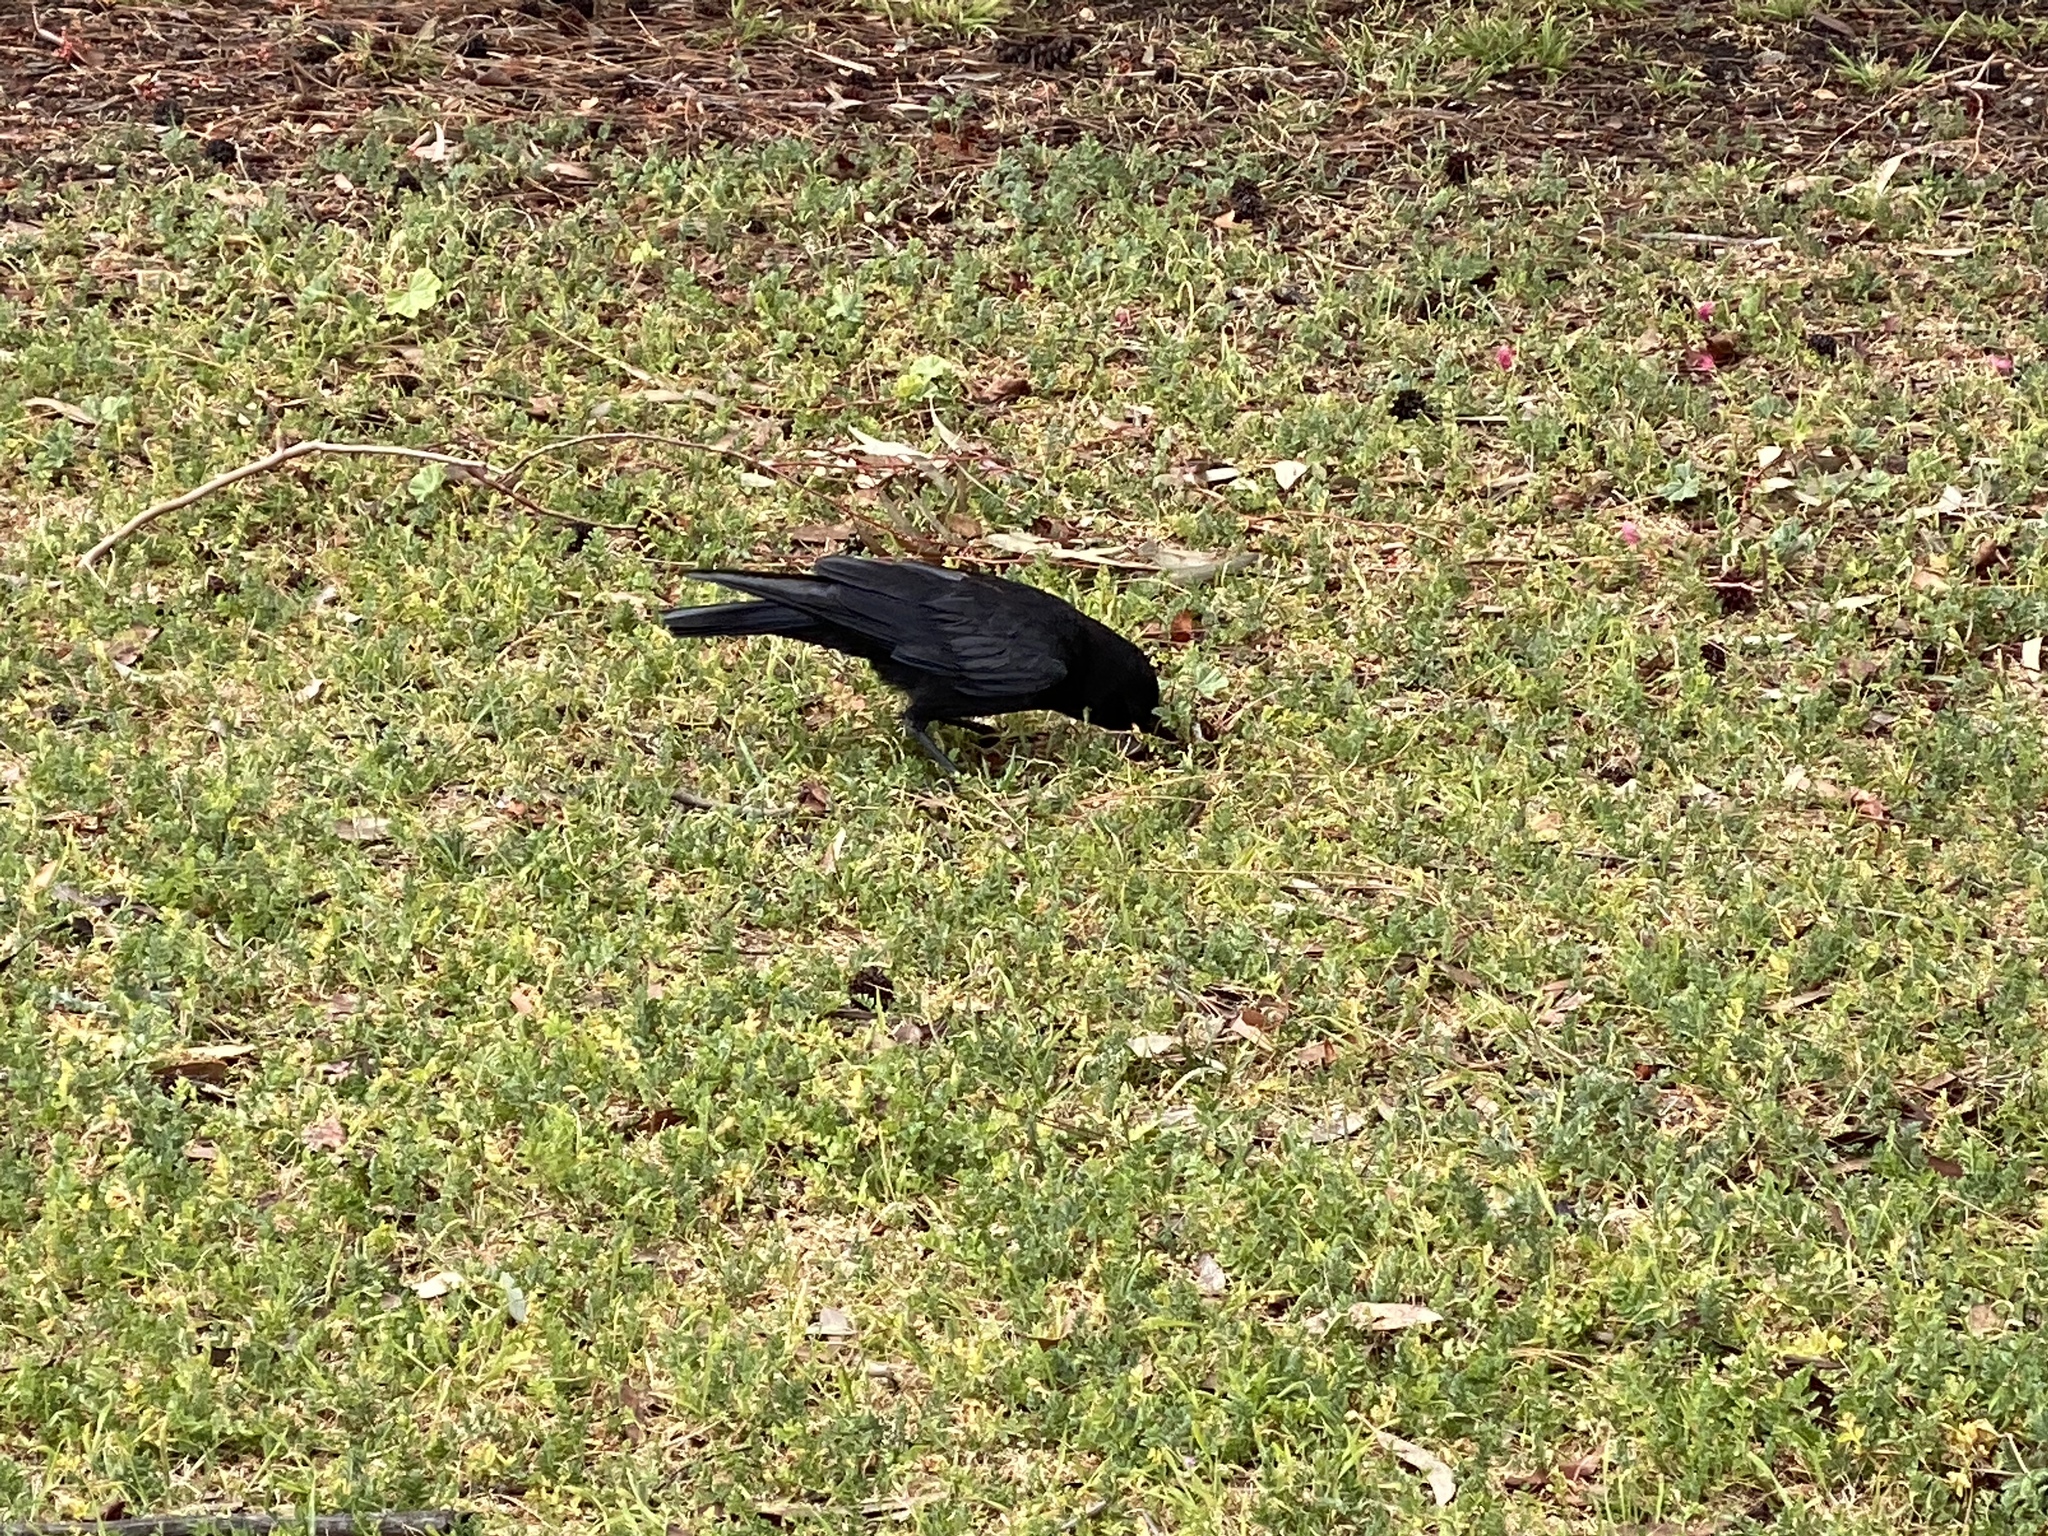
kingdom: Animalia
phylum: Chordata
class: Aves
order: Passeriformes
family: Corvidae
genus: Corvus
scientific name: Corvus brachyrhynchos
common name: American crow
